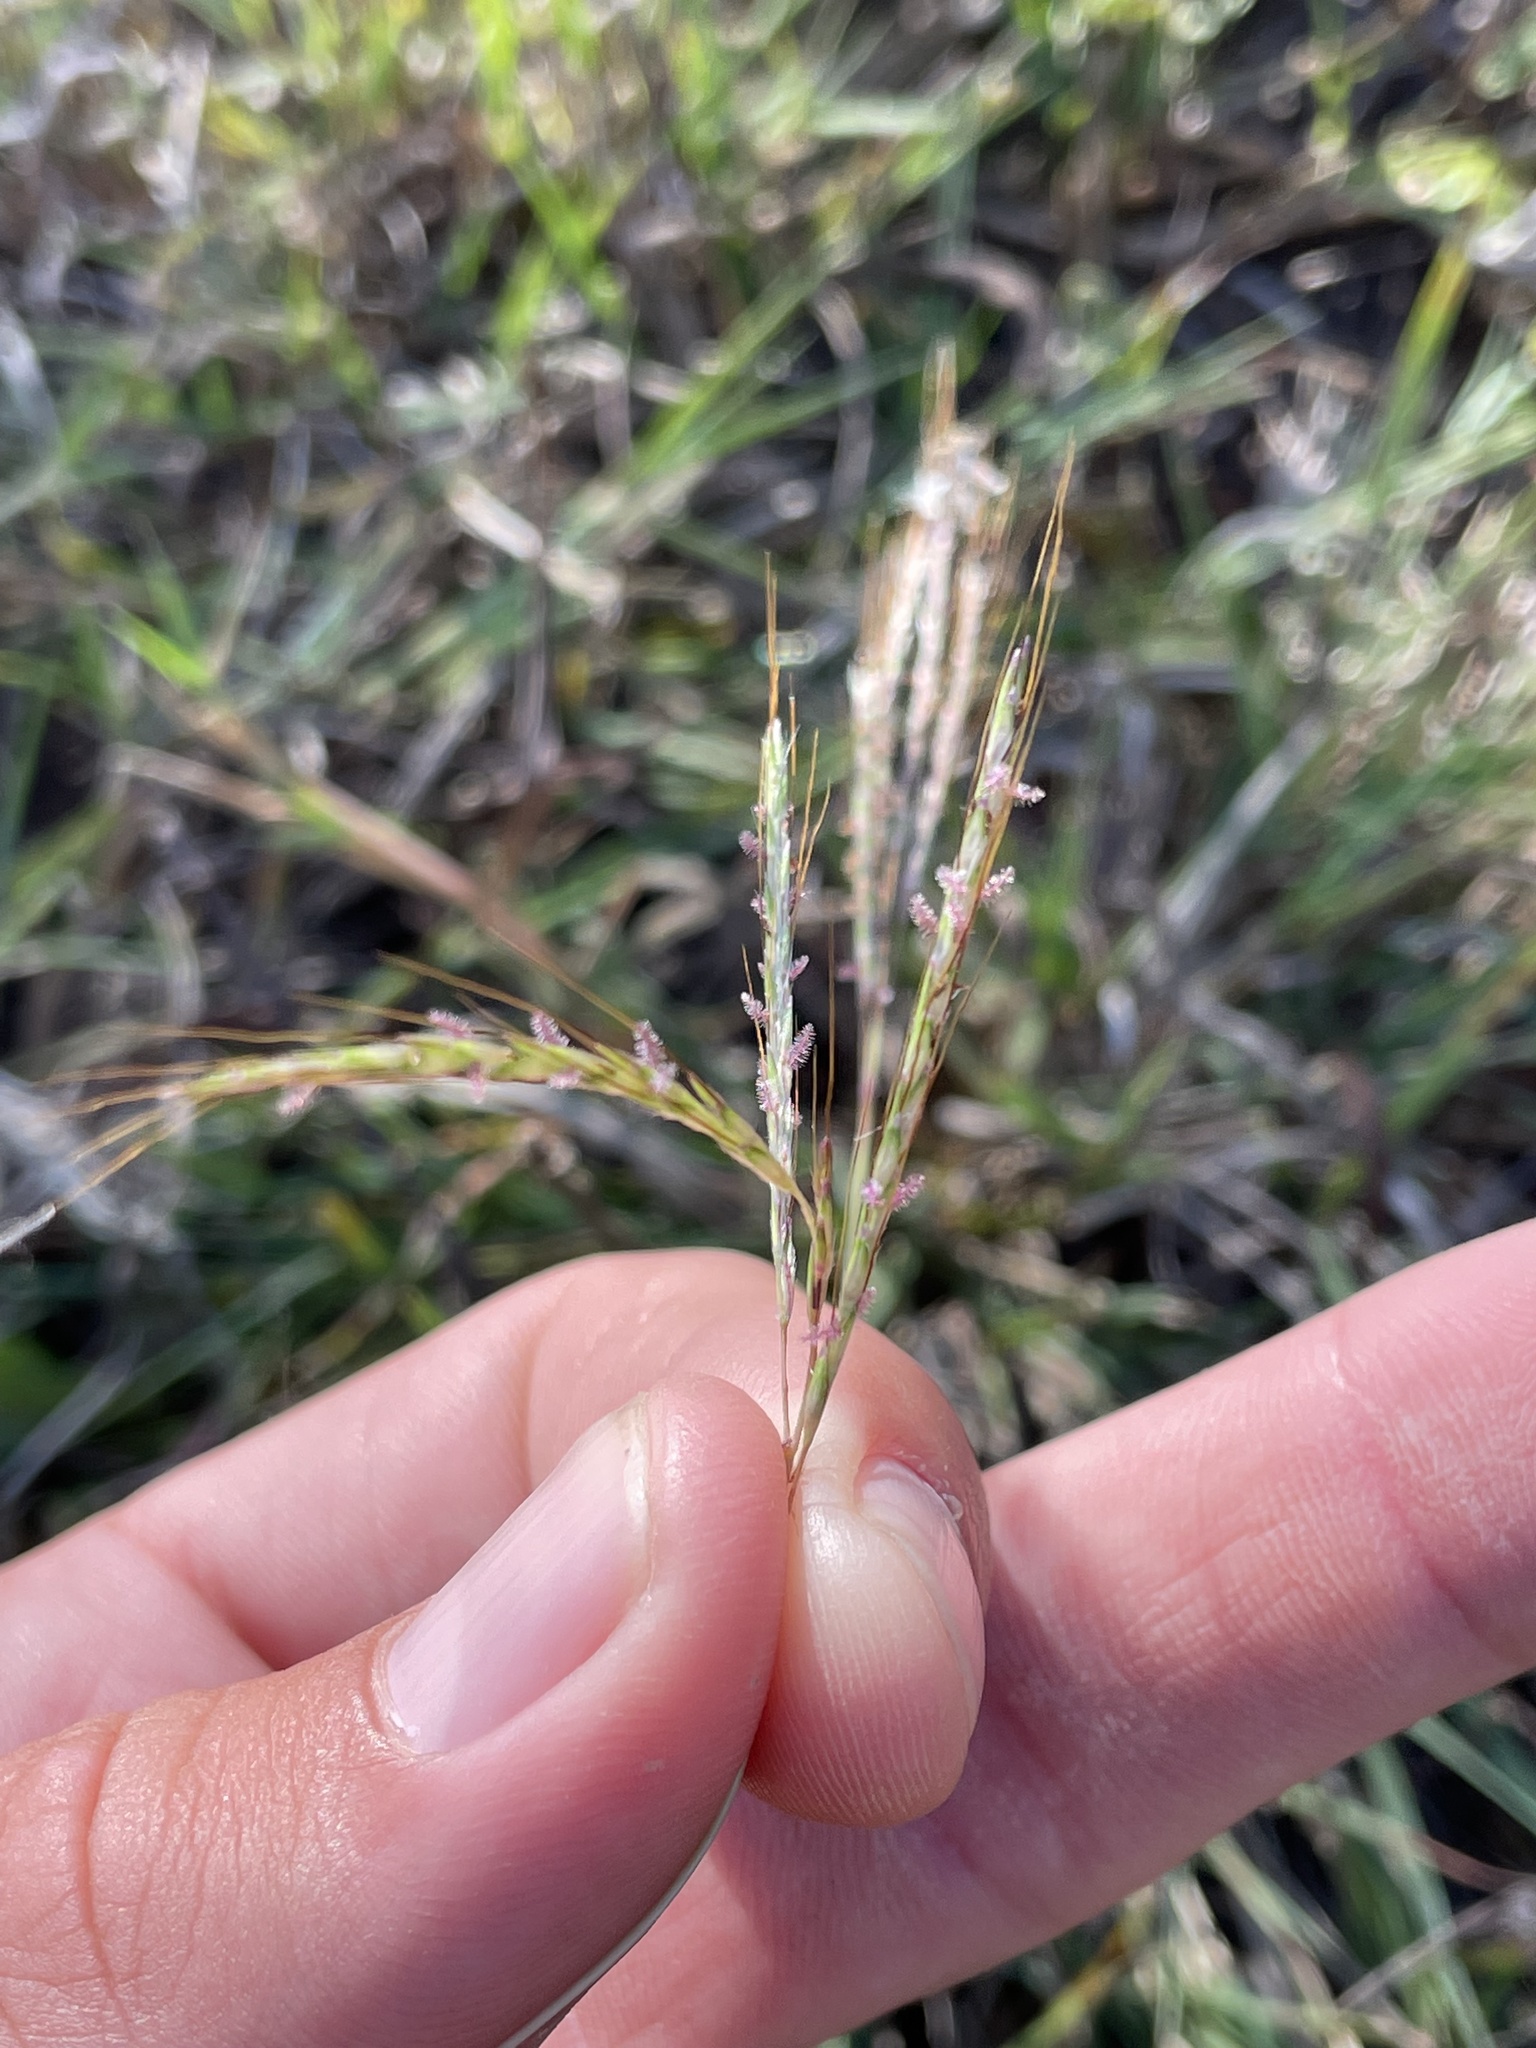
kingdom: Plantae
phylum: Tracheophyta
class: Liliopsida
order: Poales
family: Poaceae
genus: Bothriochloa
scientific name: Bothriochloa ischaemum
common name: Yellow bluestem
